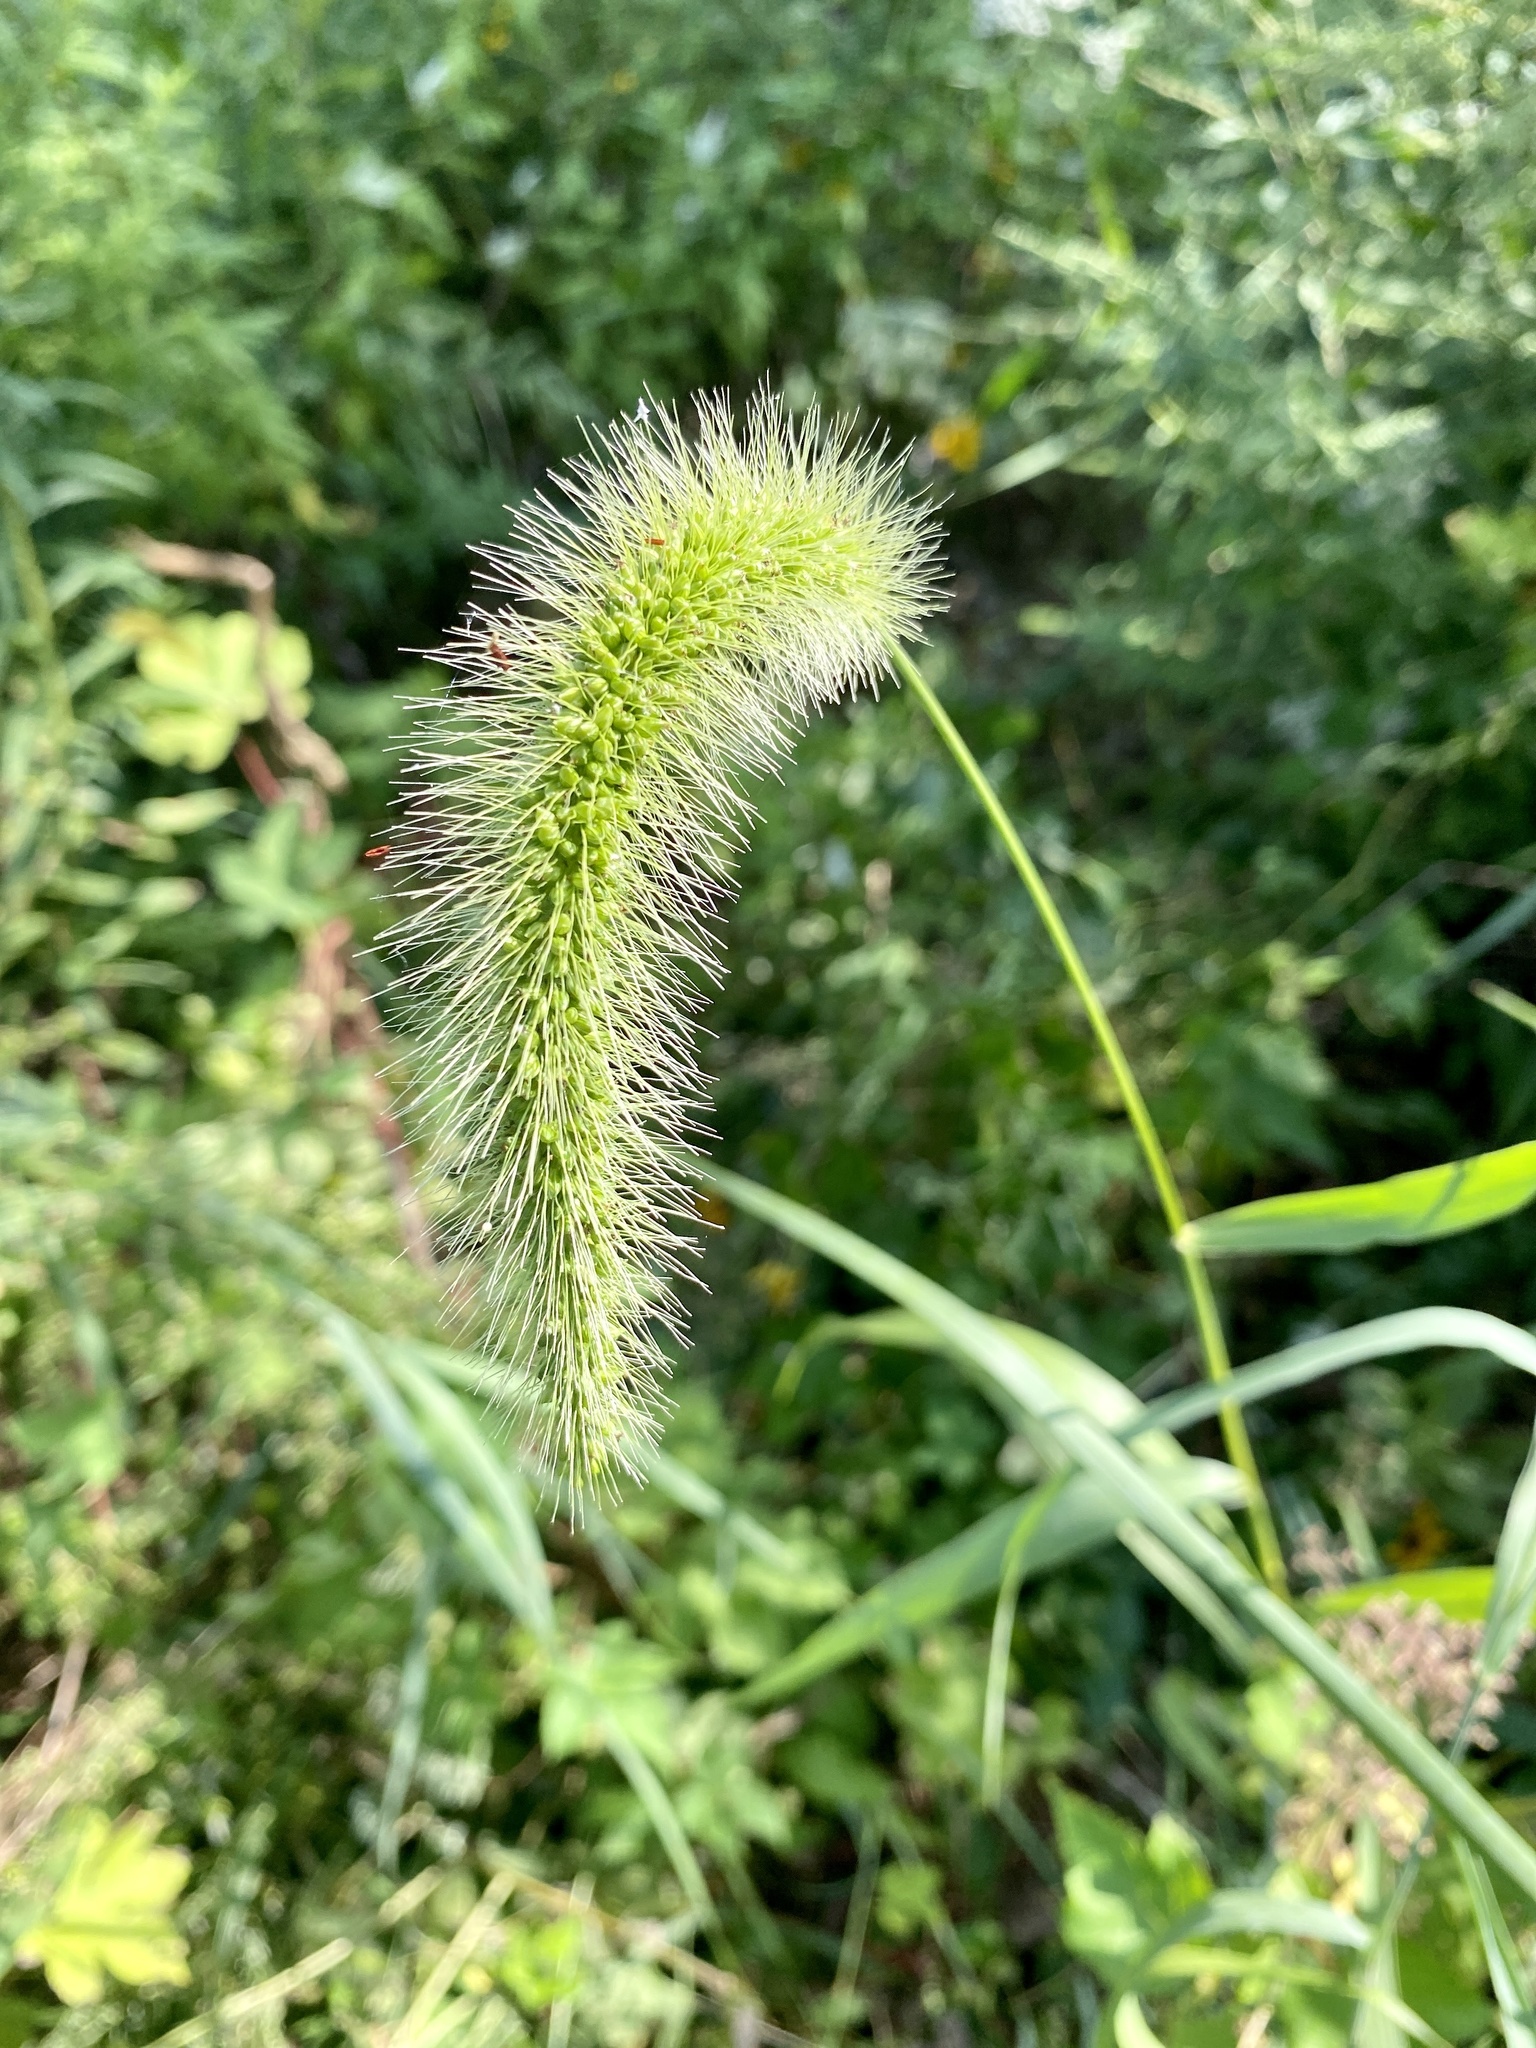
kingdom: Plantae
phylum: Tracheophyta
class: Liliopsida
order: Poales
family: Poaceae
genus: Setaria
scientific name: Setaria faberi
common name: Nodding bristle-grass
